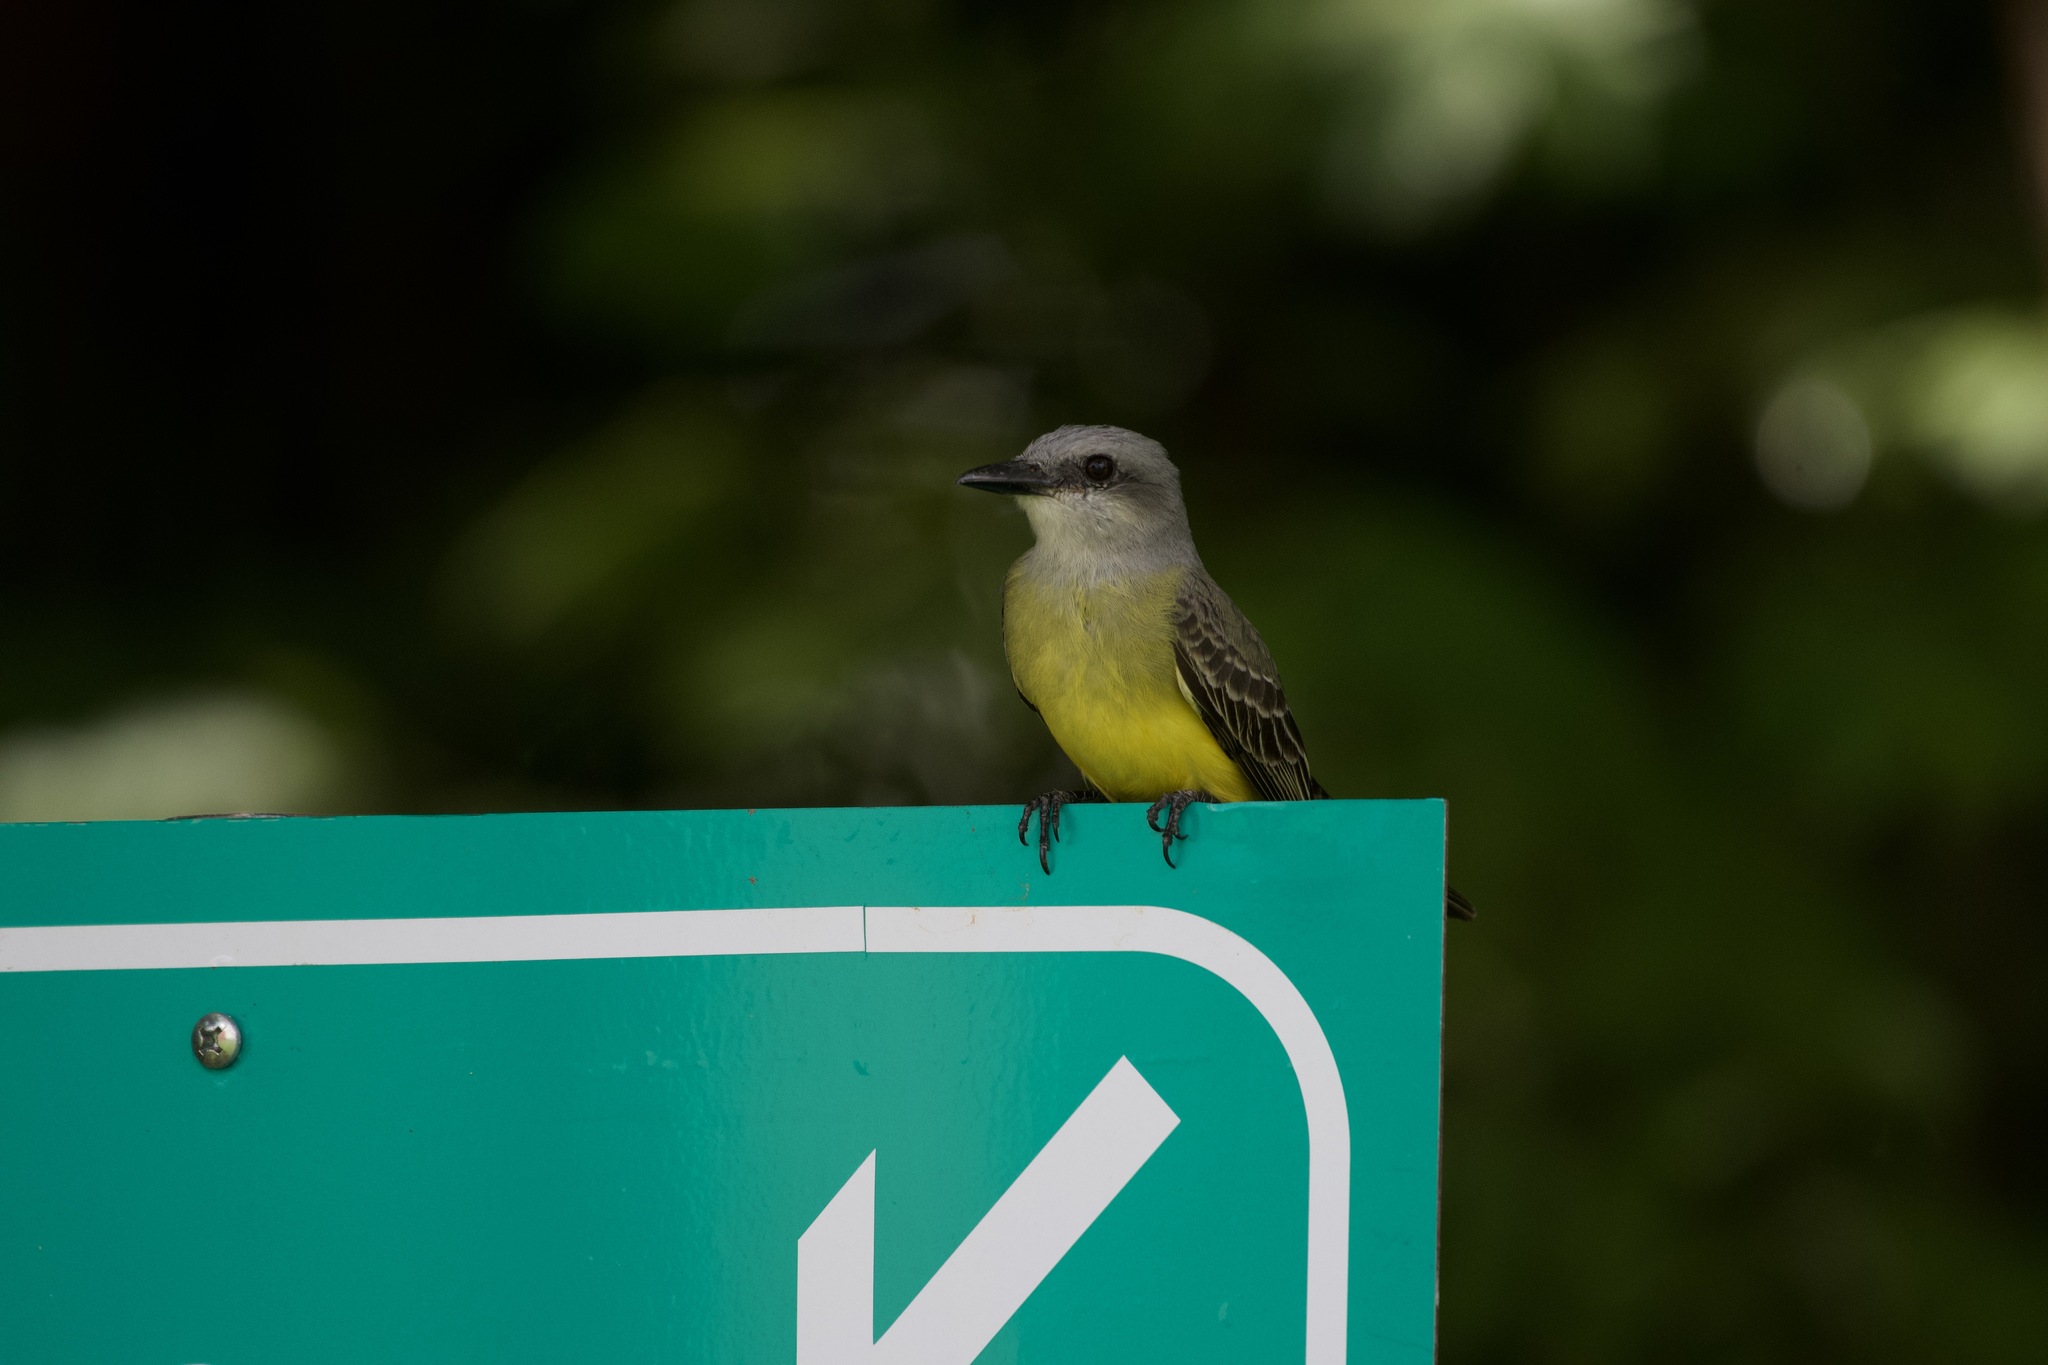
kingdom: Animalia
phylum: Chordata
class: Aves
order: Passeriformes
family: Tyrannidae
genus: Tyrannus
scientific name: Tyrannus melancholicus
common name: Tropical kingbird
